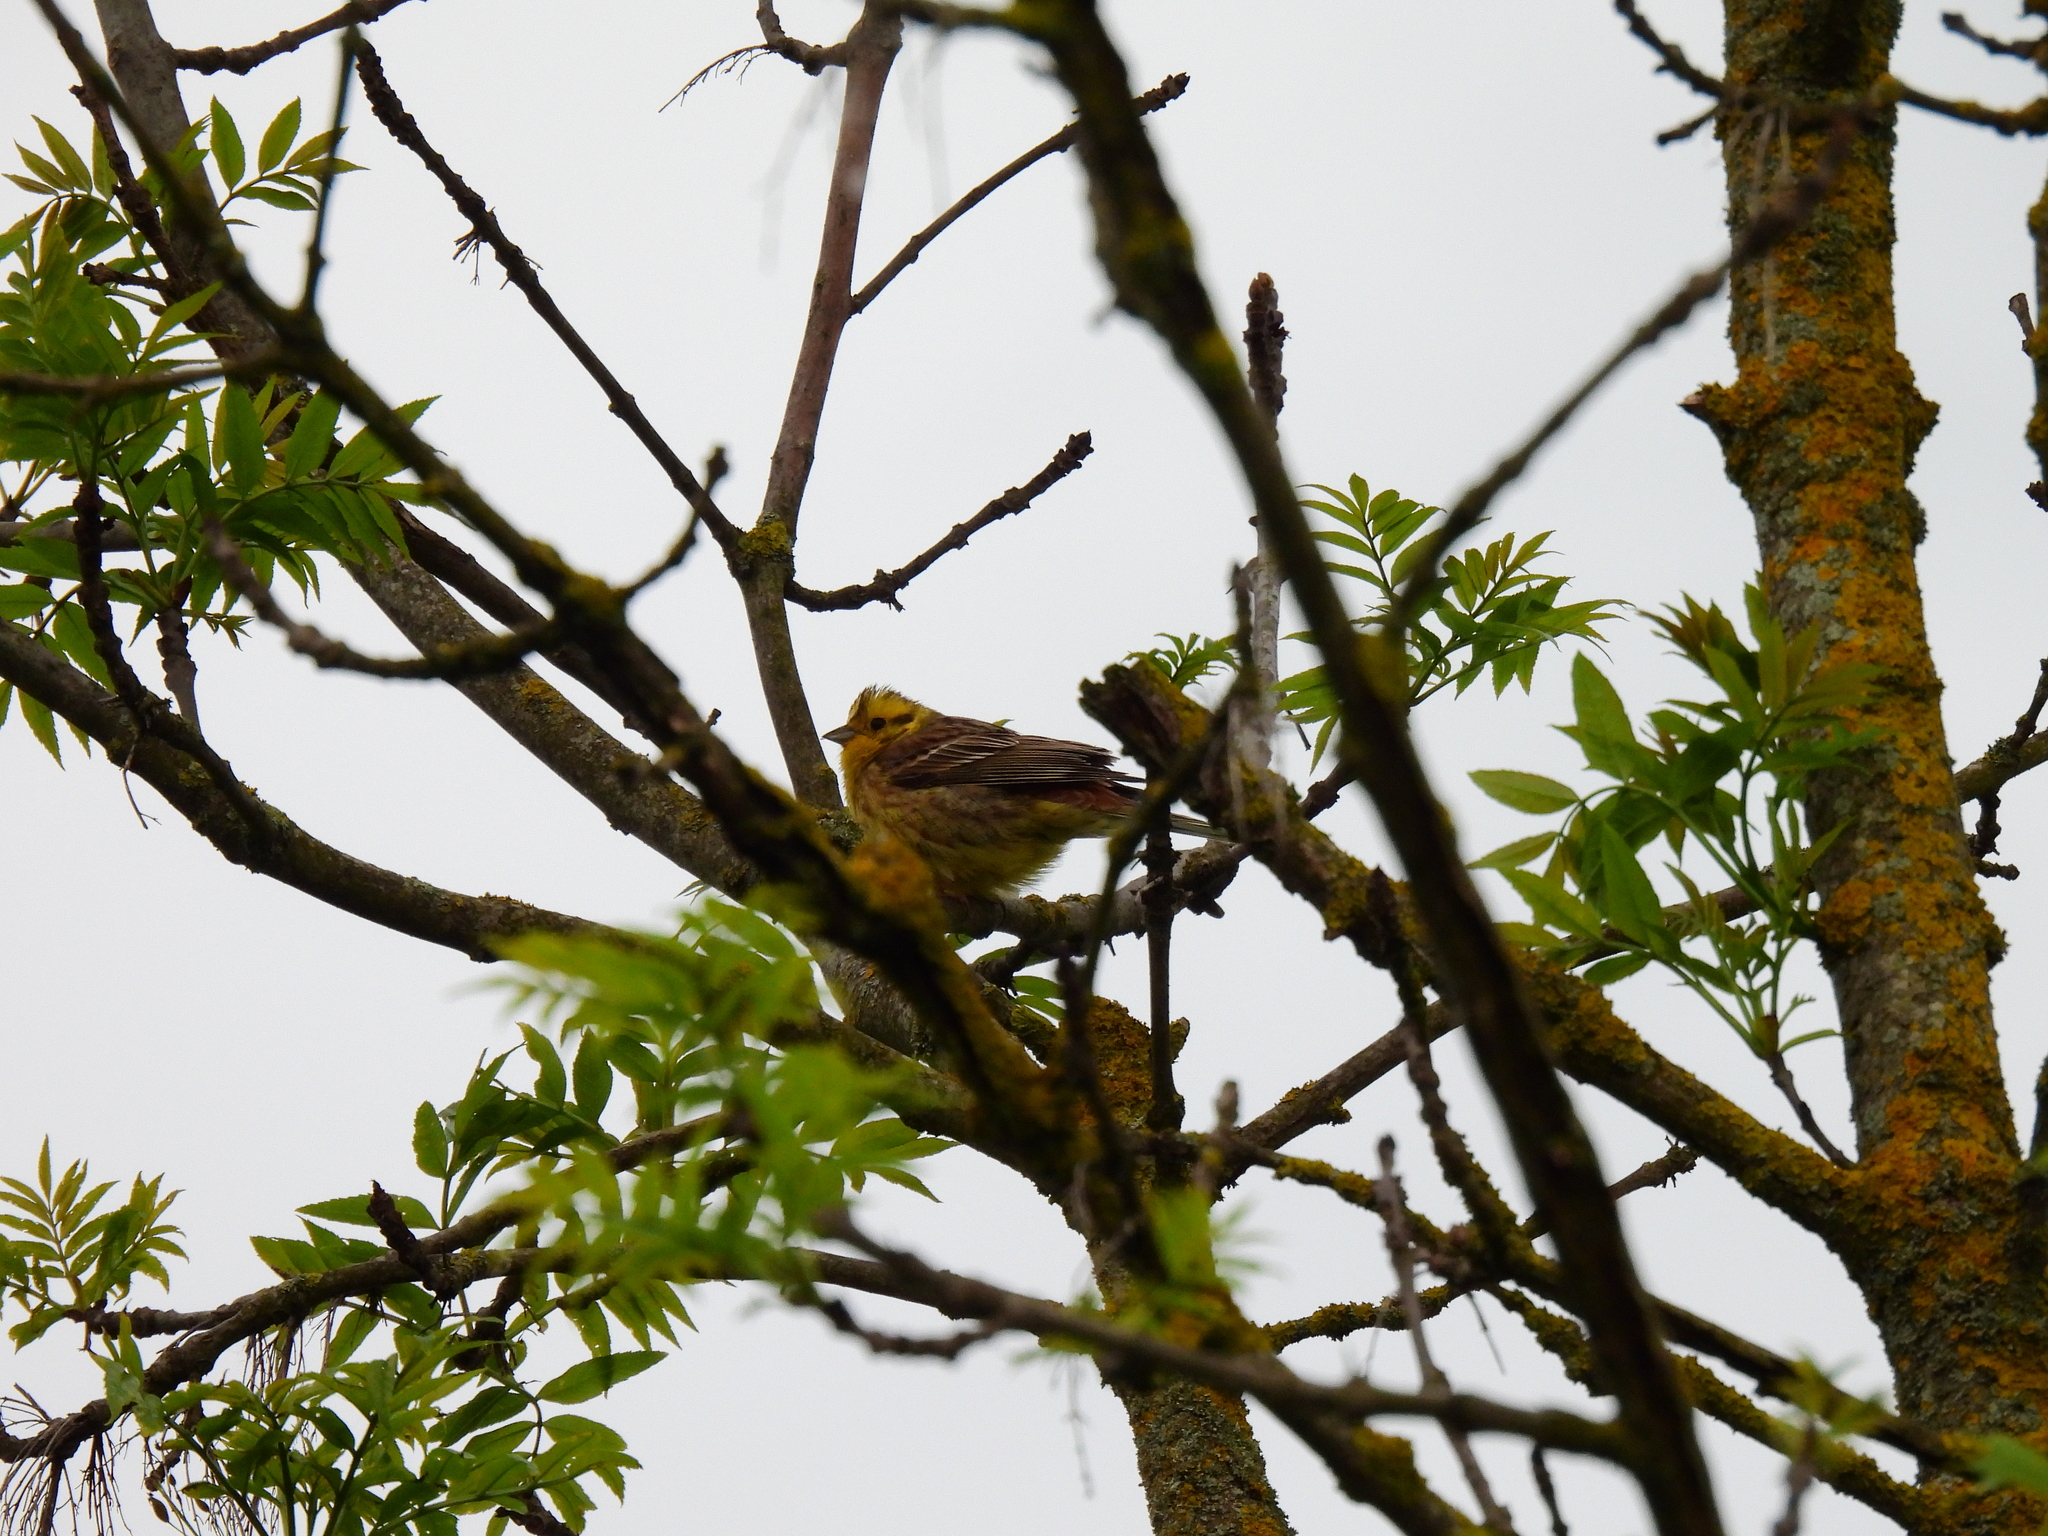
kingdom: Animalia
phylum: Chordata
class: Aves
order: Passeriformes
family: Emberizidae
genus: Emberiza
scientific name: Emberiza citrinella
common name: Yellowhammer
